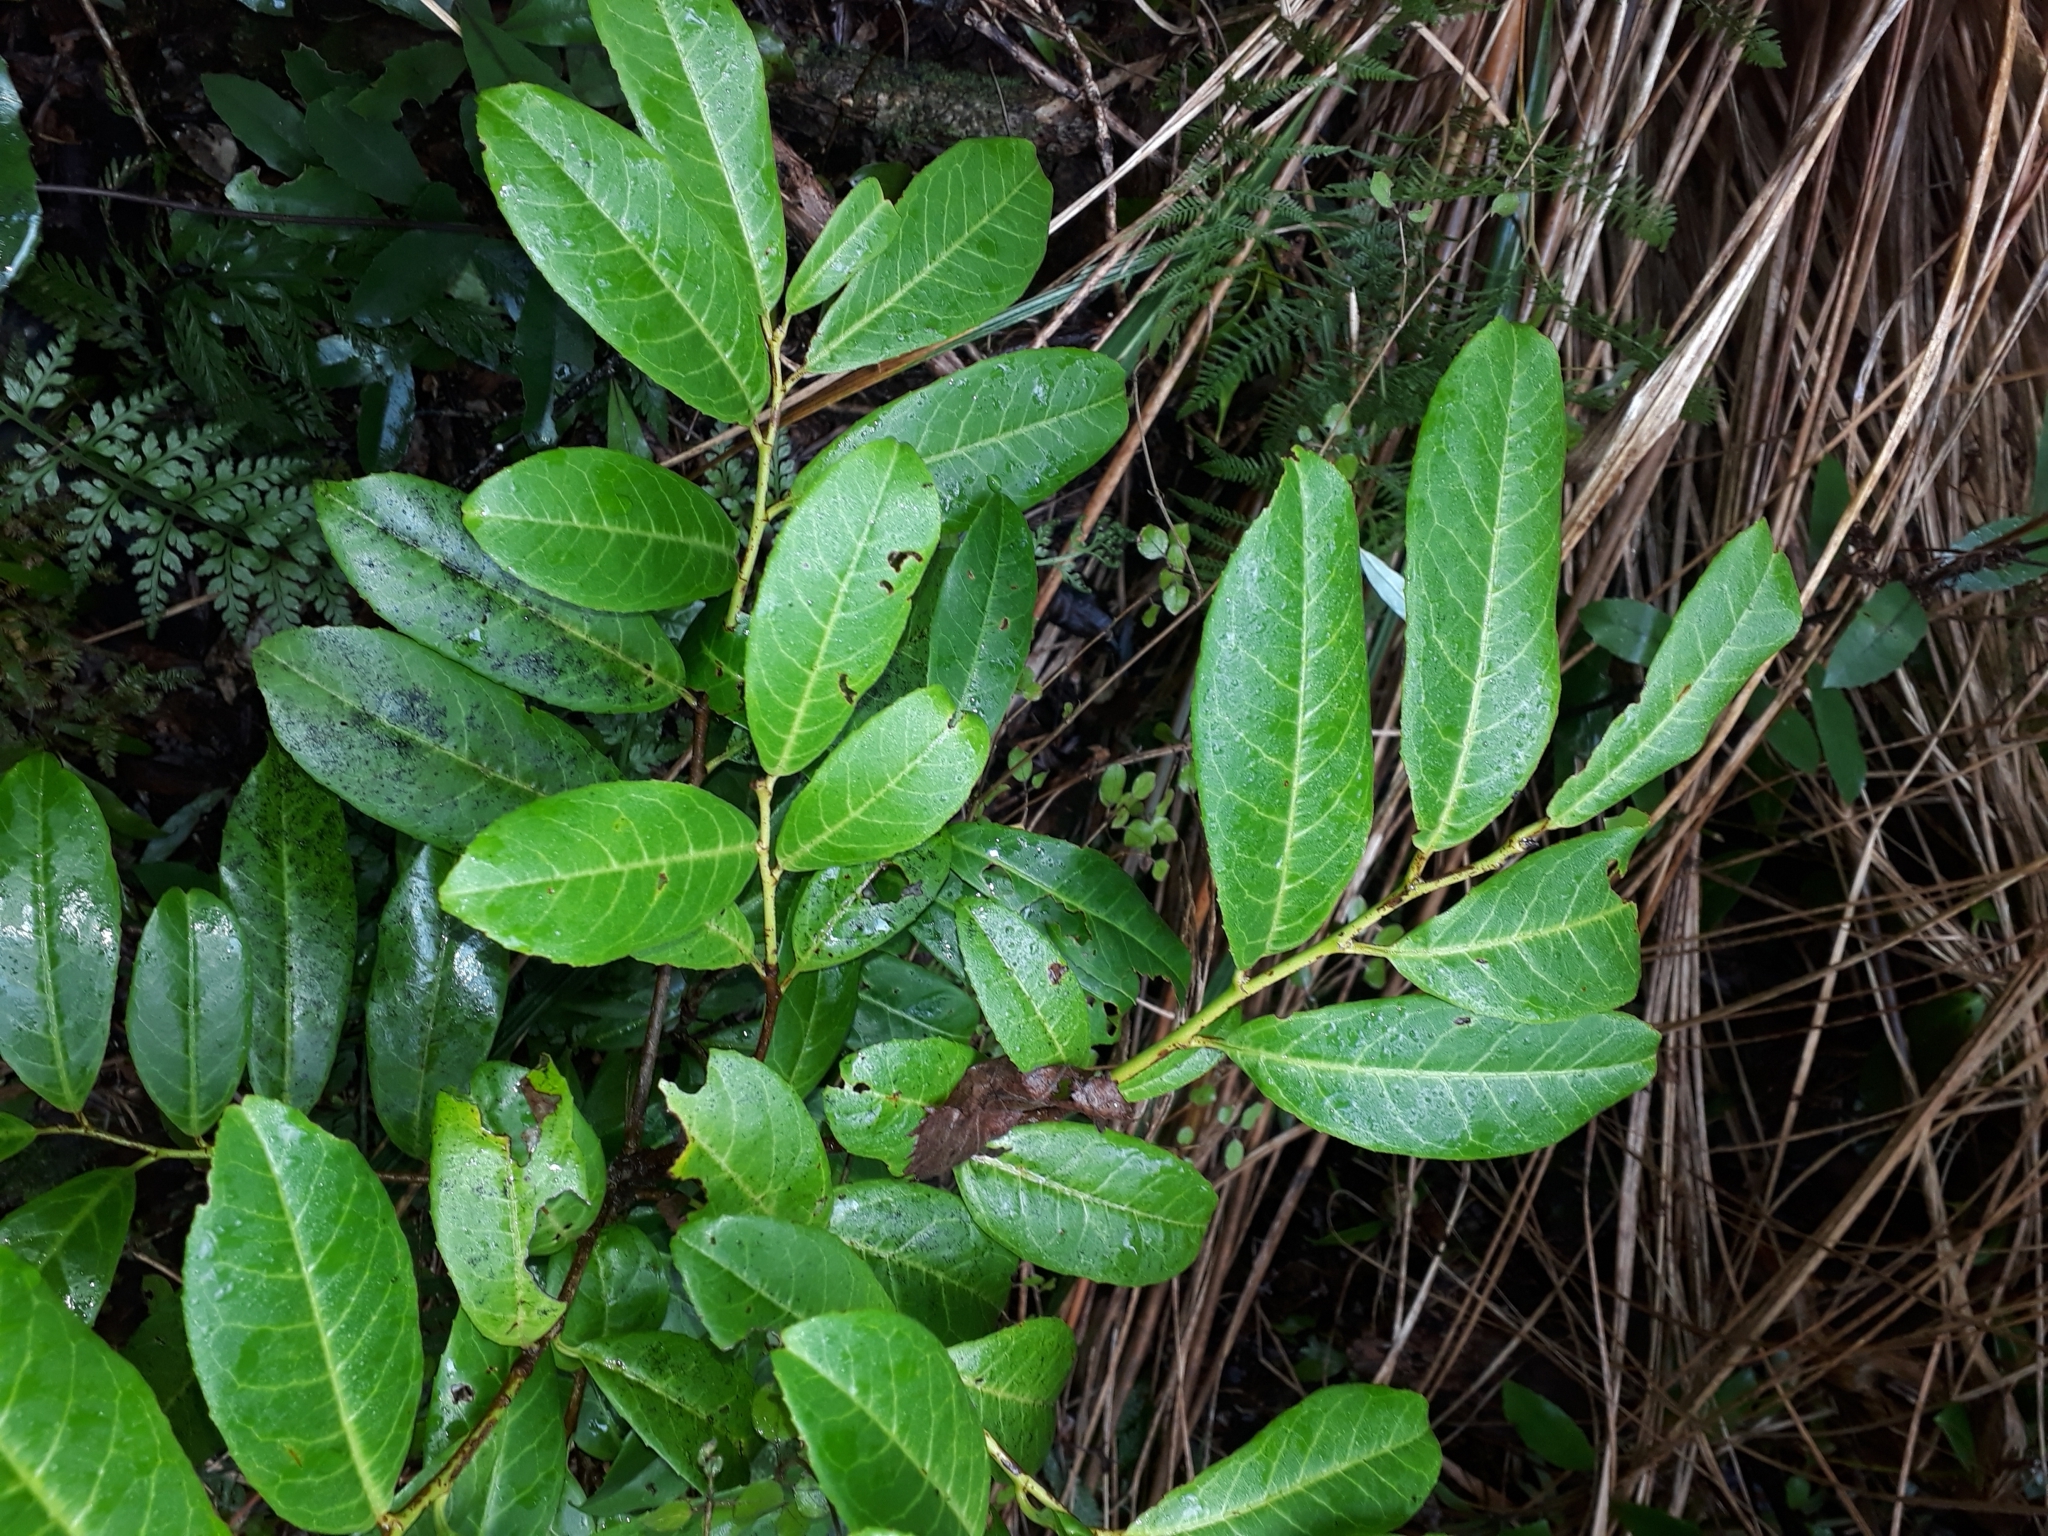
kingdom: Plantae
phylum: Tracheophyta
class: Magnoliopsida
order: Rosales
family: Rosaceae
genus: Prunus
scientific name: Prunus laurocerasus
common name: Cherry laurel
